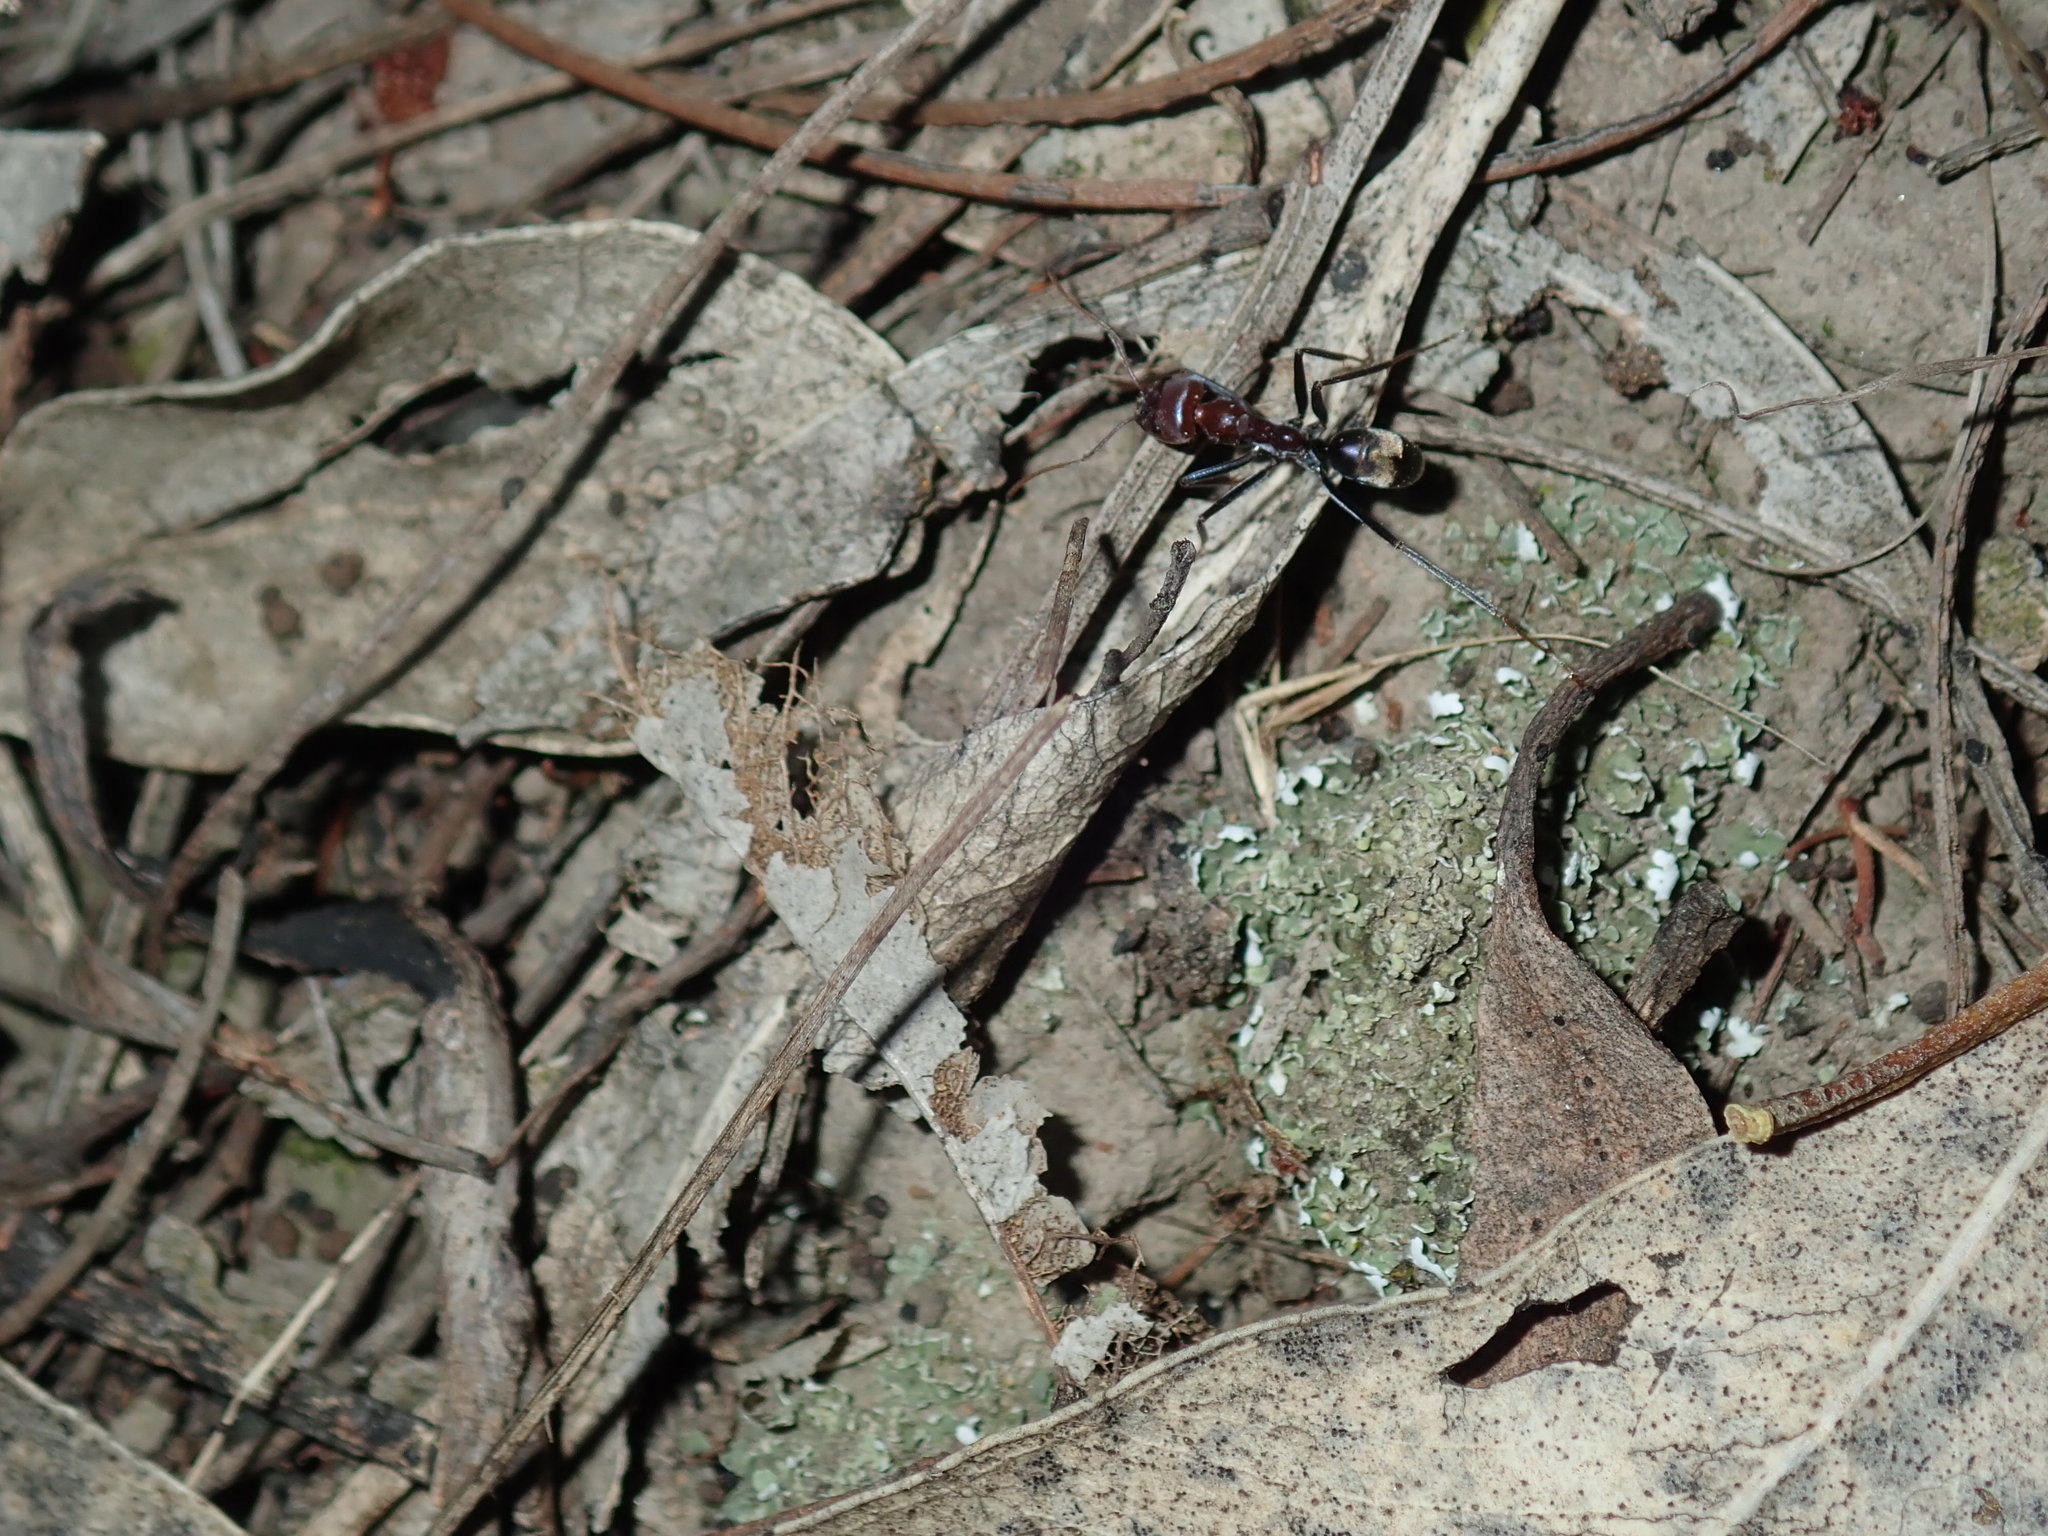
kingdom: Animalia
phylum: Arthropoda
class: Insecta
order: Hymenoptera
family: Formicidae
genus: Iridomyrmex
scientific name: Iridomyrmex purpureus
